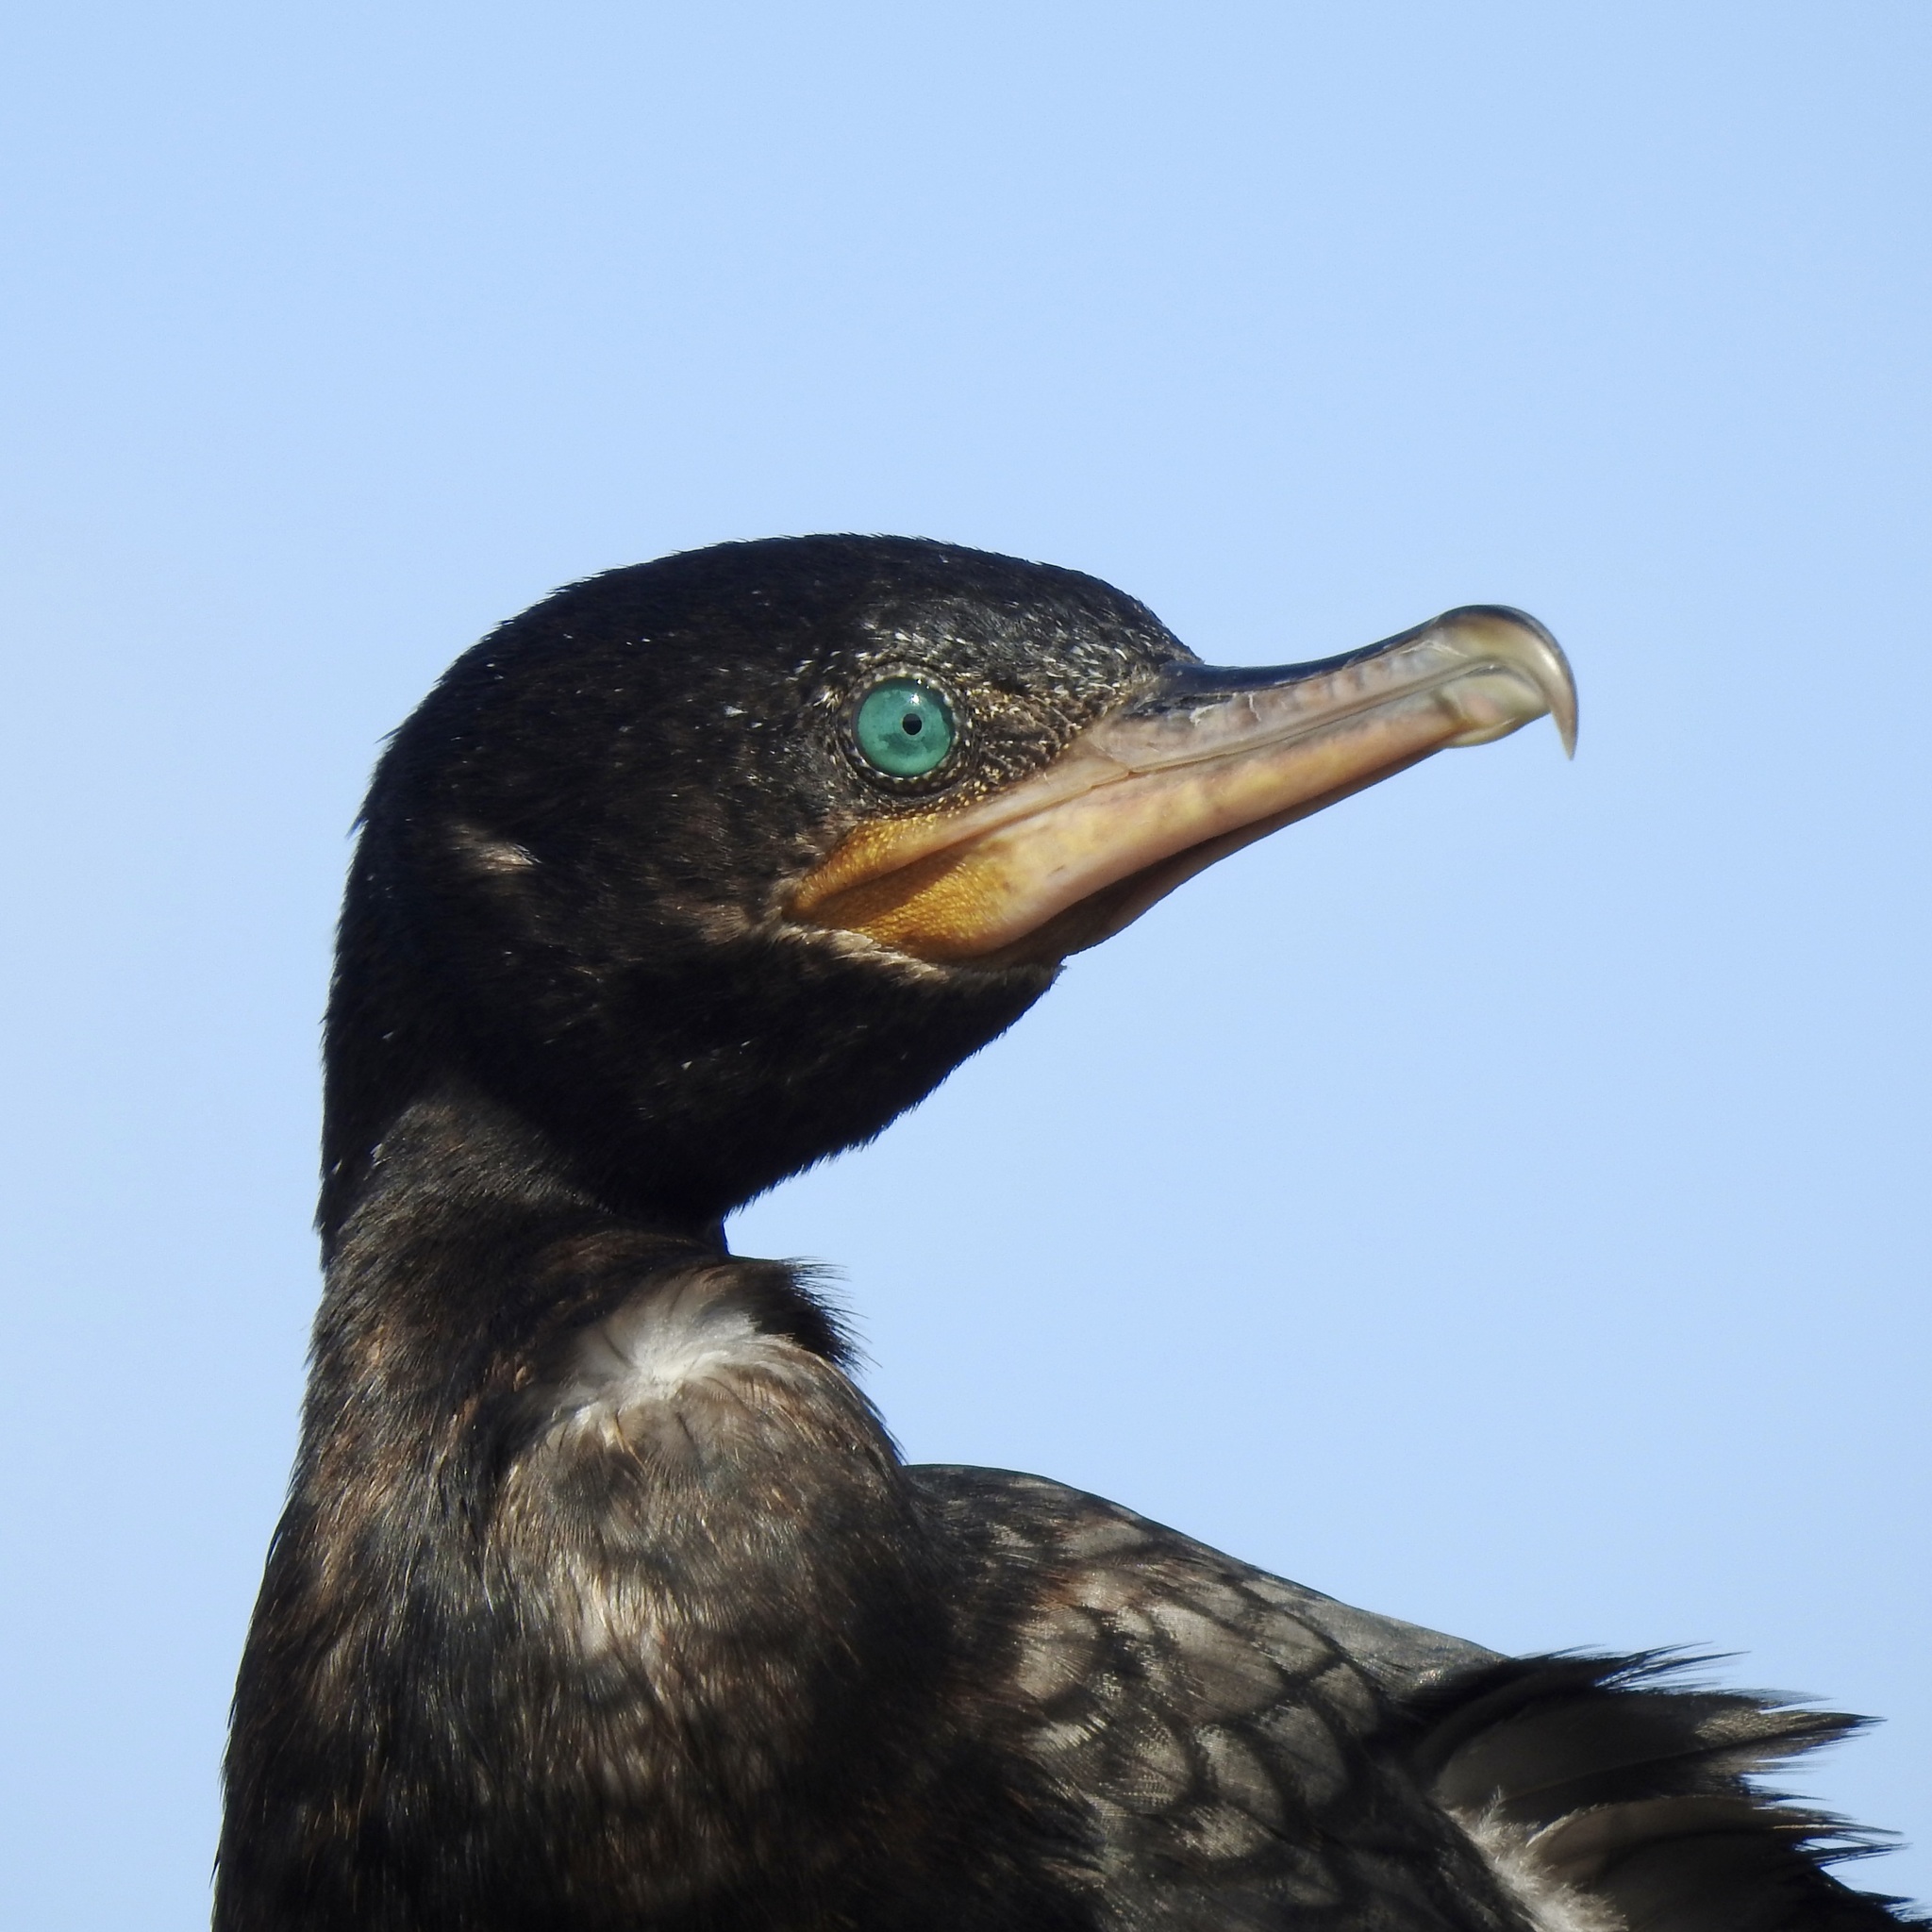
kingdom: Animalia
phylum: Chordata
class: Aves
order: Suliformes
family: Phalacrocoracidae
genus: Phalacrocorax
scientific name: Phalacrocorax brasilianus
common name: Neotropic cormorant
